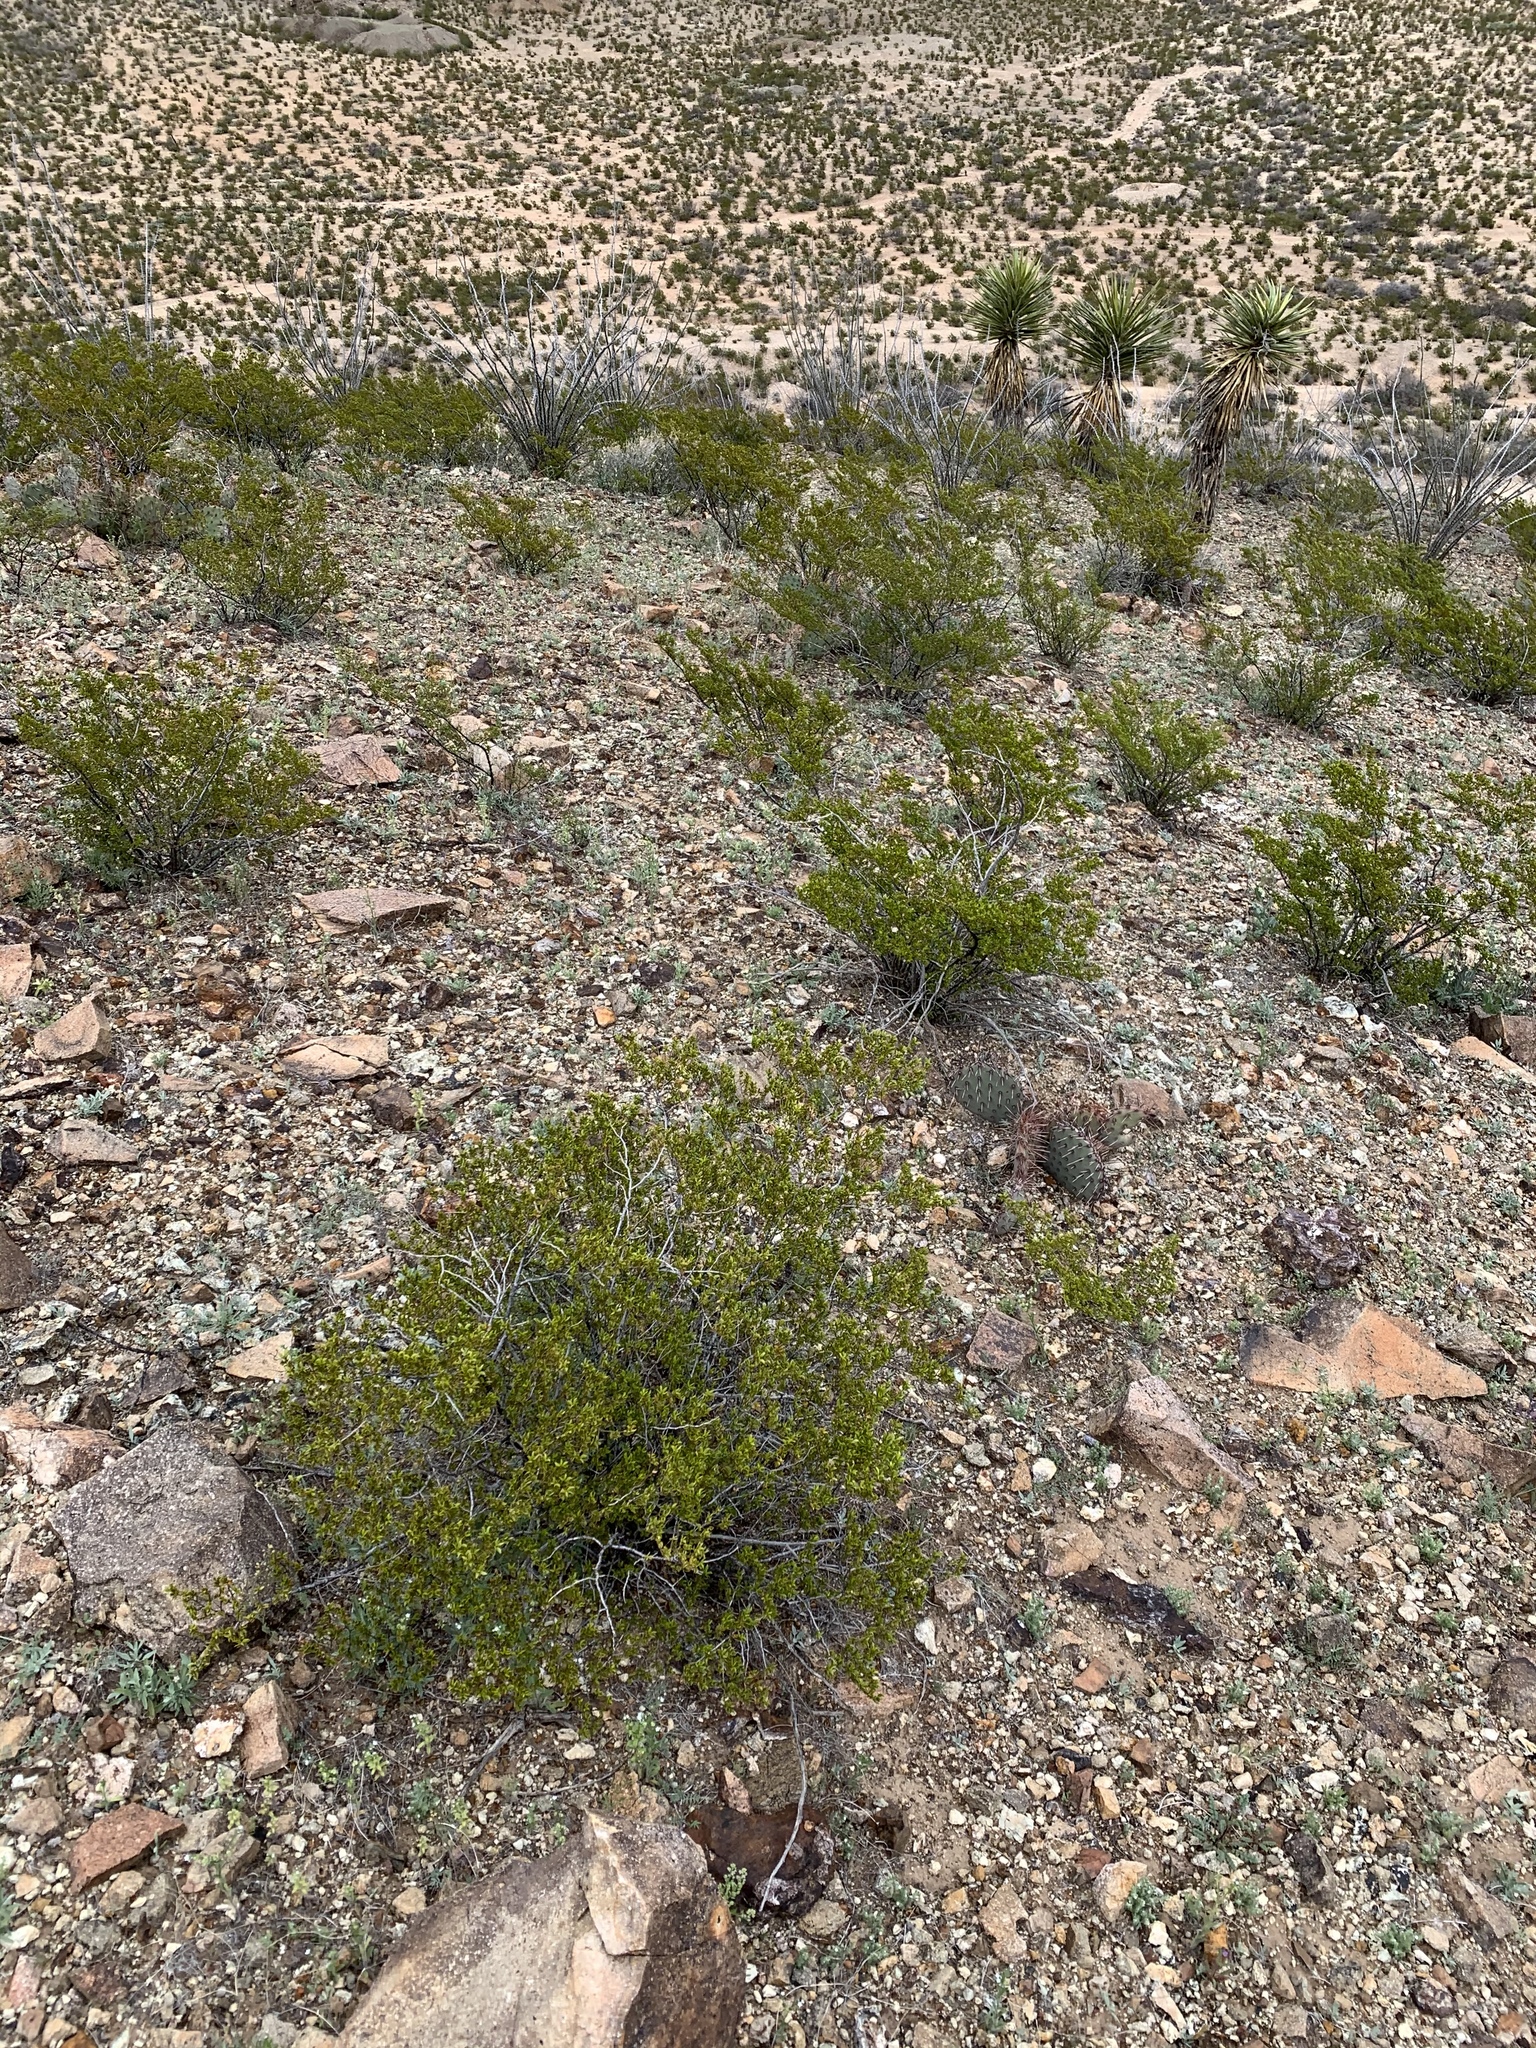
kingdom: Plantae
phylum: Tracheophyta
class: Magnoliopsida
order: Zygophyllales
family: Zygophyllaceae
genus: Larrea
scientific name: Larrea tridentata
